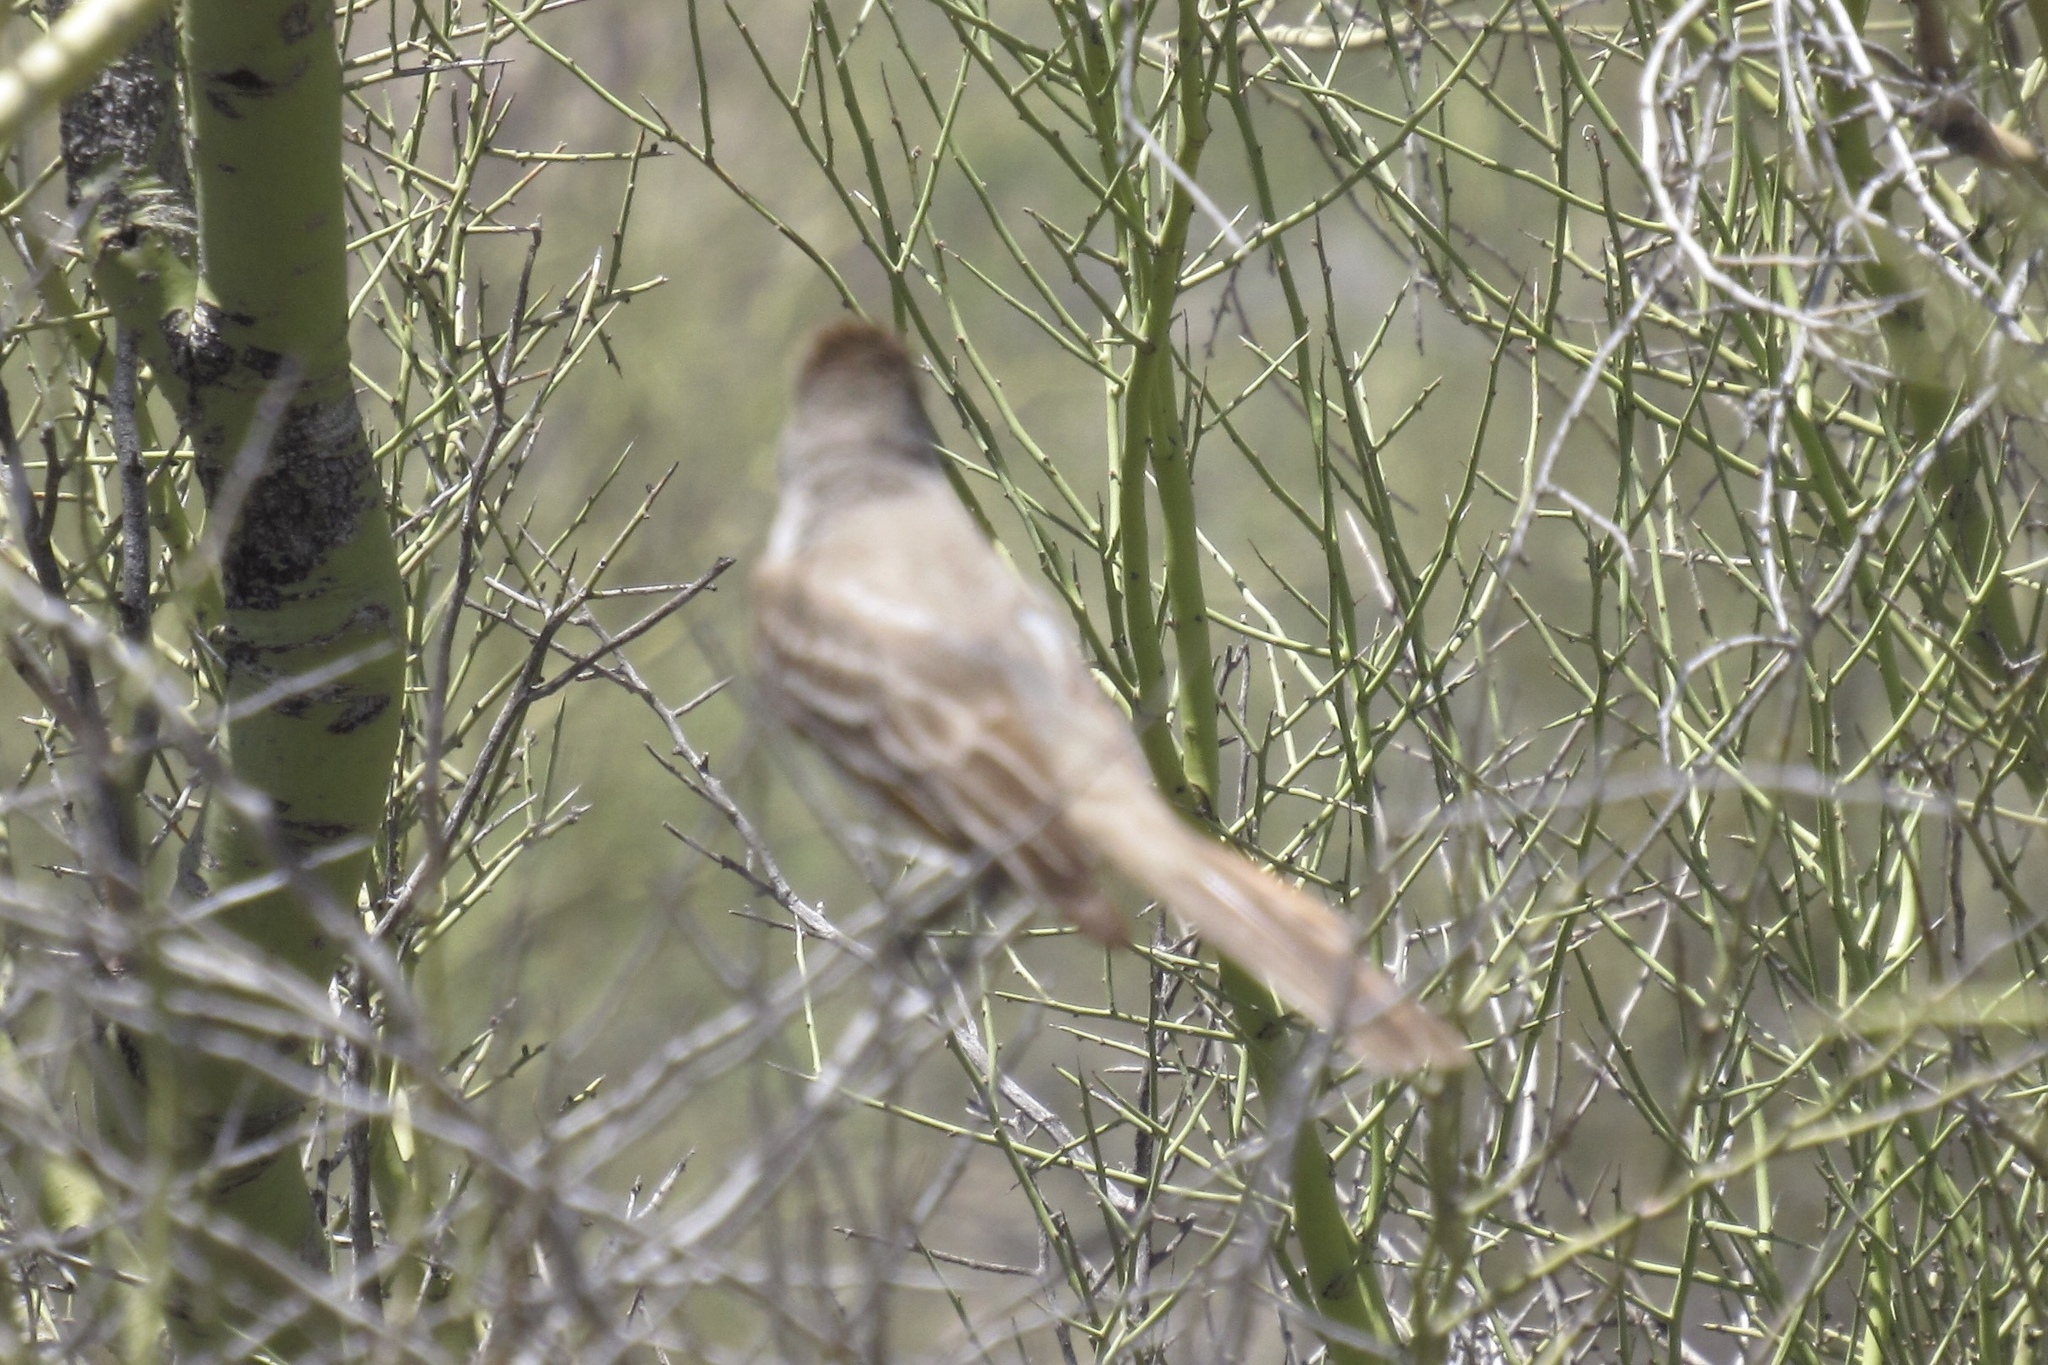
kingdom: Animalia
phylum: Chordata
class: Aves
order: Passeriformes
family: Tyrannidae
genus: Myiarchus
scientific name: Myiarchus cinerascens
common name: Ash-throated flycatcher
